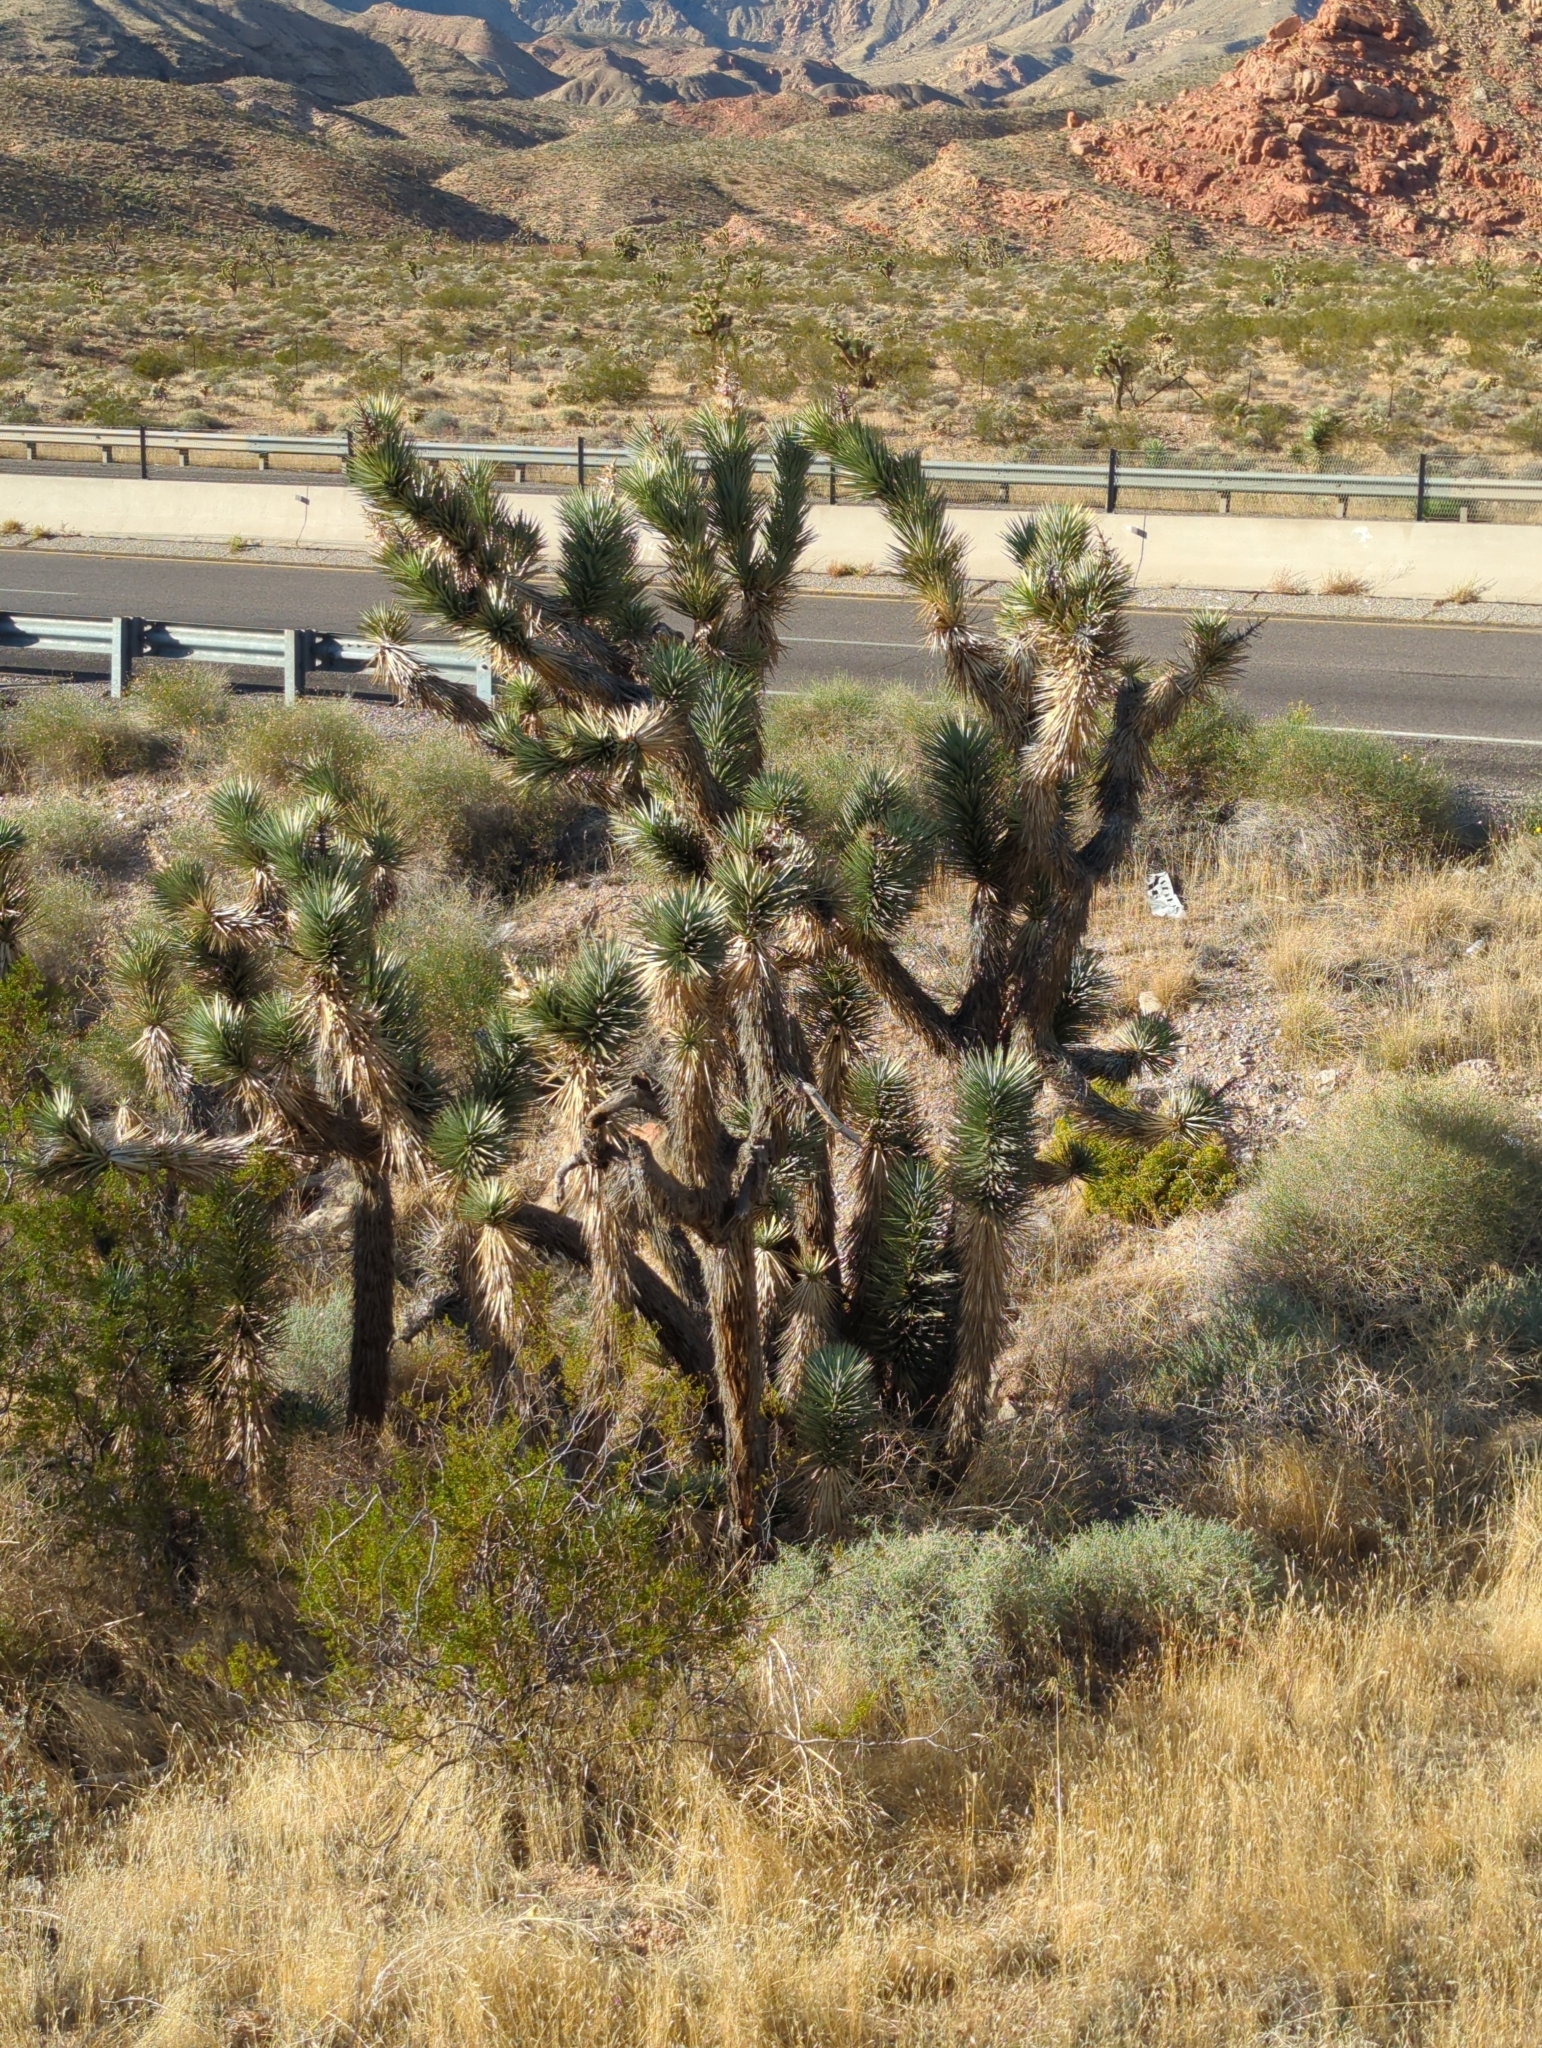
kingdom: Plantae
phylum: Tracheophyta
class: Liliopsida
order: Asparagales
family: Asparagaceae
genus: Yucca
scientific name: Yucca brevifolia
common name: Joshua tree
